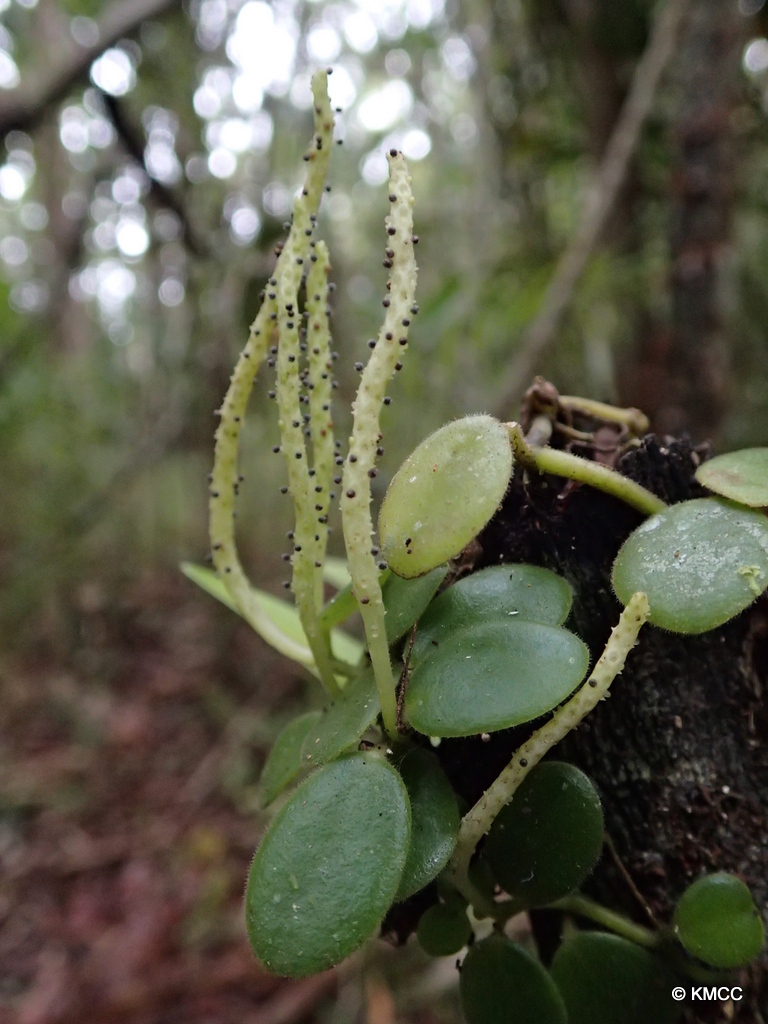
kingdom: Plantae
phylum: Tracheophyta
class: Magnoliopsida
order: Piperales
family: Piperaceae
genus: Peperomia
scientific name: Peperomia trichophylla
